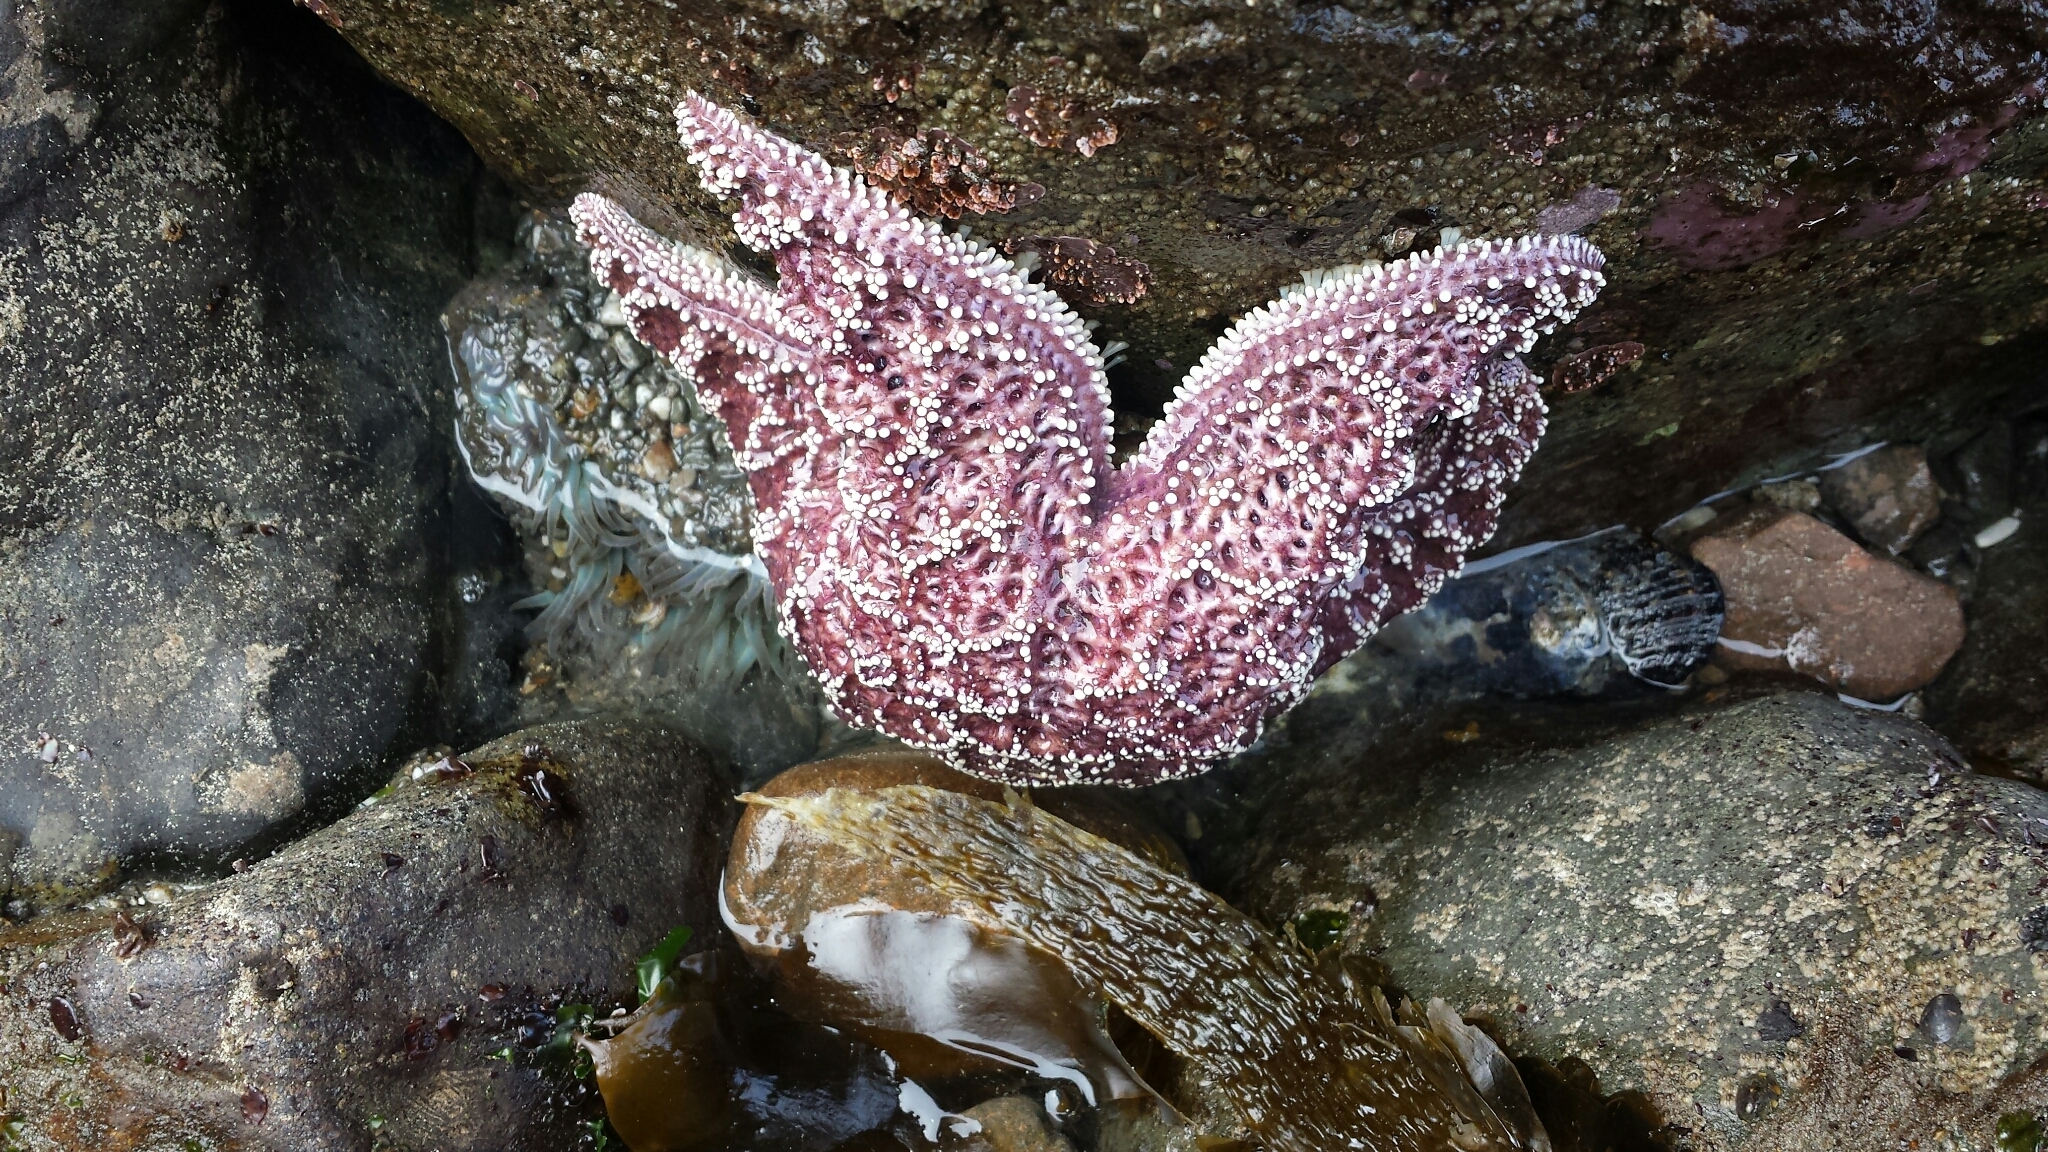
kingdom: Animalia
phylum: Echinodermata
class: Asteroidea
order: Forcipulatida
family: Asteriidae
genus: Pisaster
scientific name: Pisaster ochraceus
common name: Ochre stars
